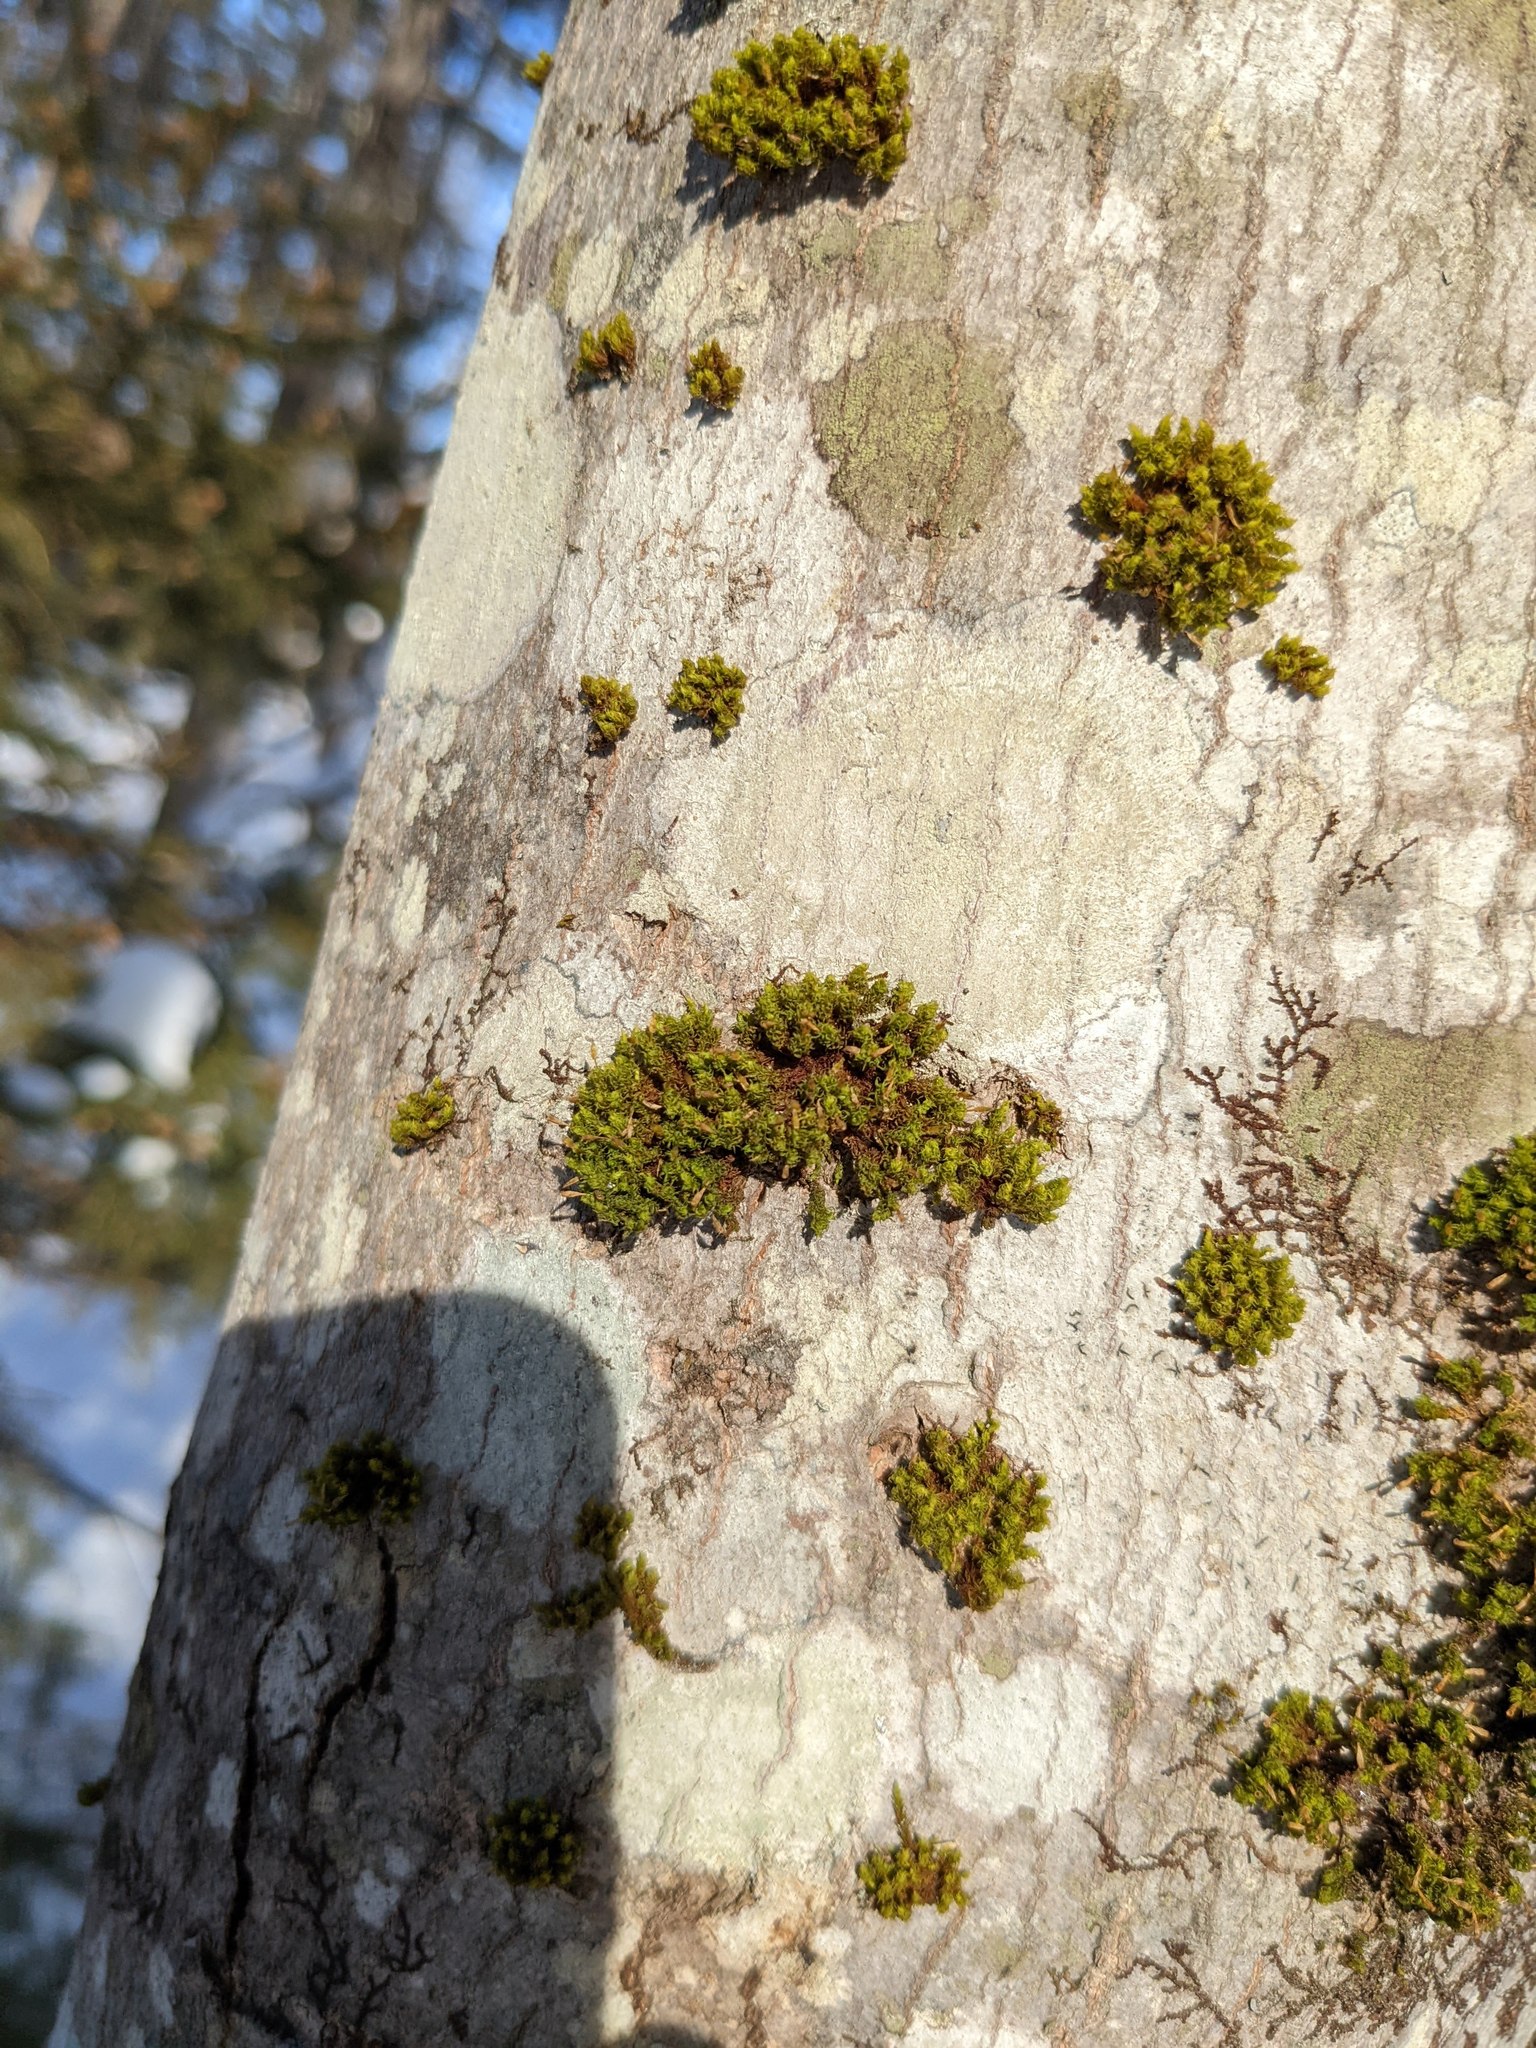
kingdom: Plantae
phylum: Bryophyta
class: Bryopsida
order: Orthotrichales
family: Orthotrichaceae
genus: Ulota
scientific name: Ulota crispa
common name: Crisped pincushion moss
